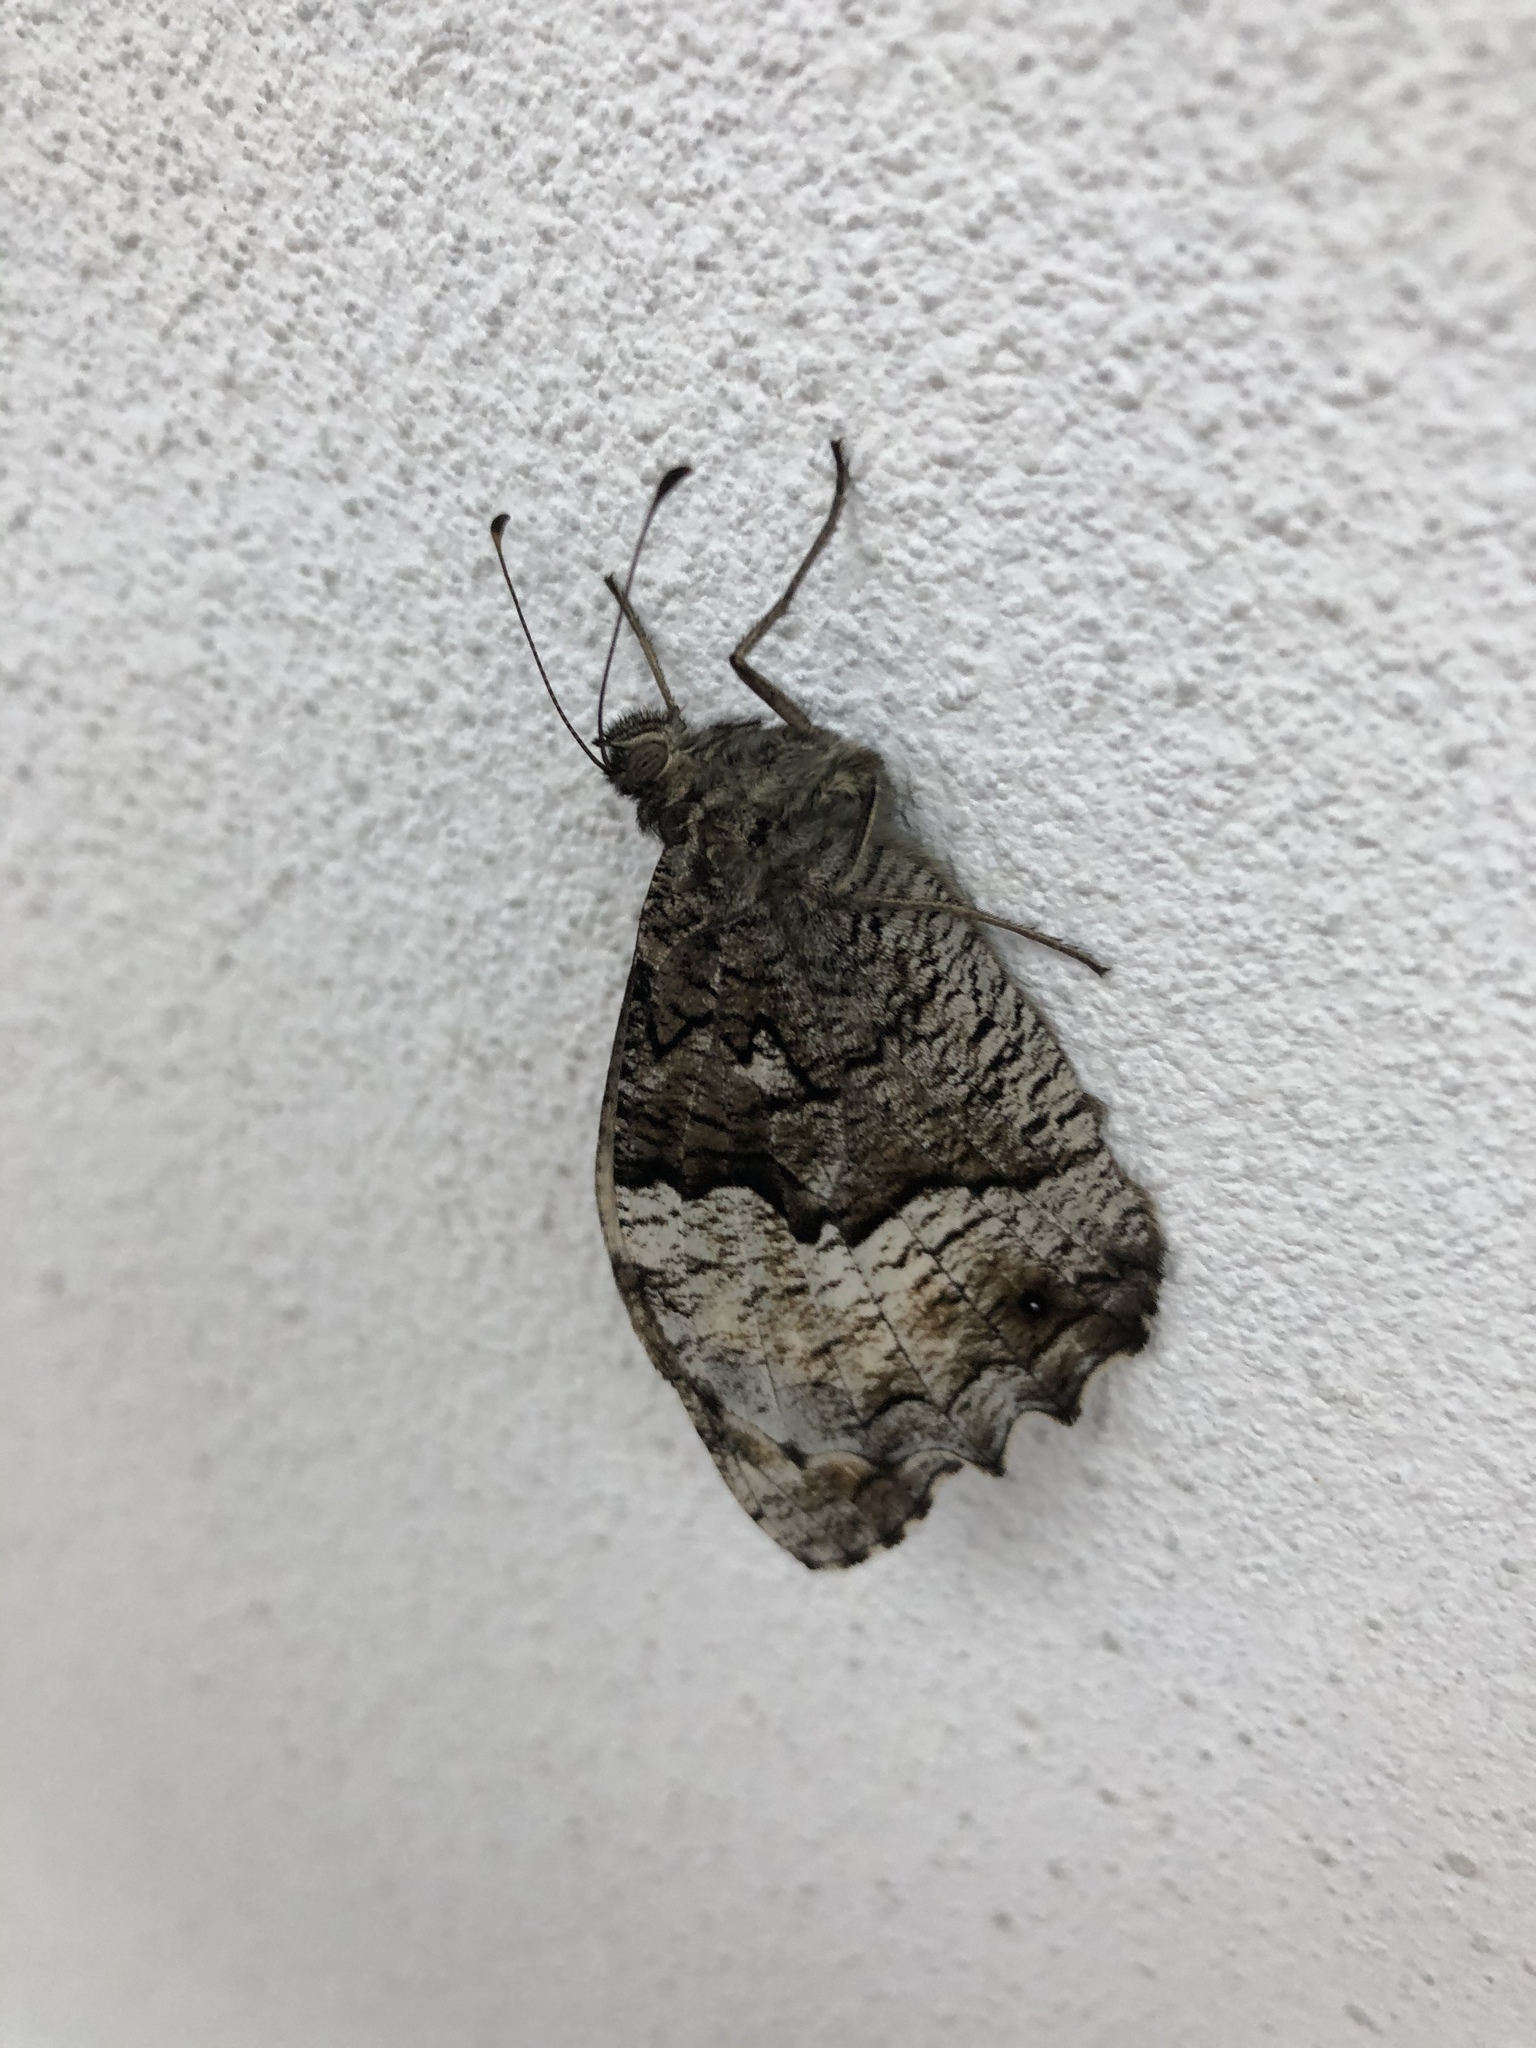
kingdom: Animalia
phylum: Arthropoda
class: Insecta
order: Lepidoptera
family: Nymphalidae
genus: Hipparchia
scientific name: Hipparchia fagi
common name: Woodland grayling
